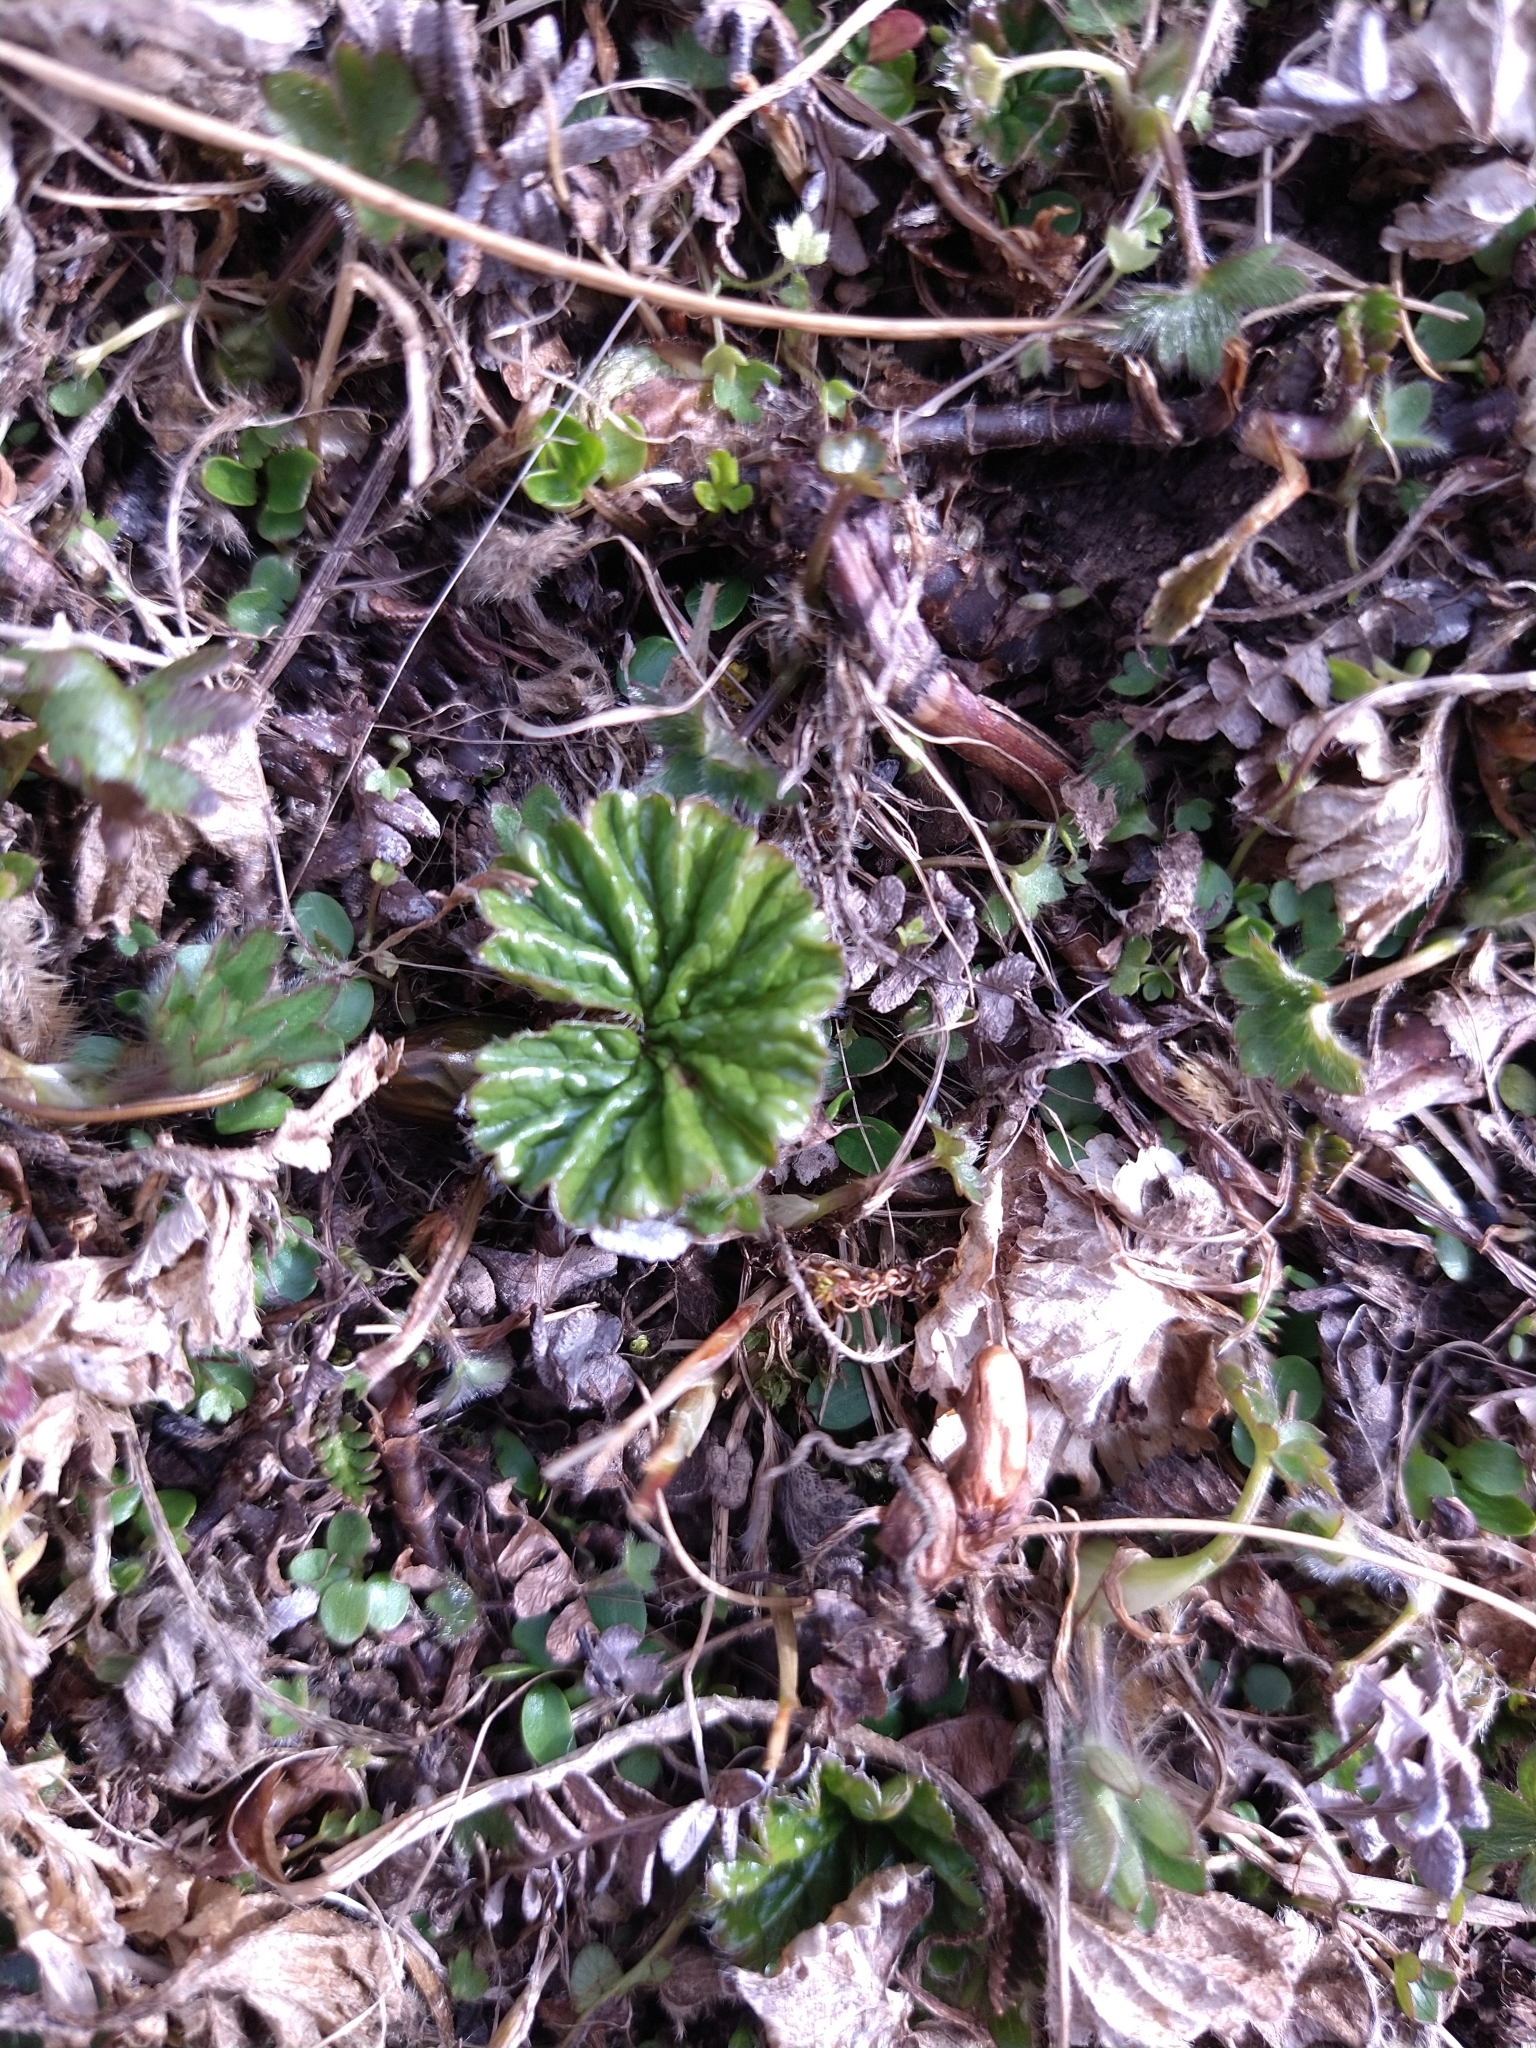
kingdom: Plantae
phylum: Tracheophyta
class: Magnoliopsida
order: Gunnerales
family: Gunneraceae
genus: Gunnera
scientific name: Gunnera magellanica
